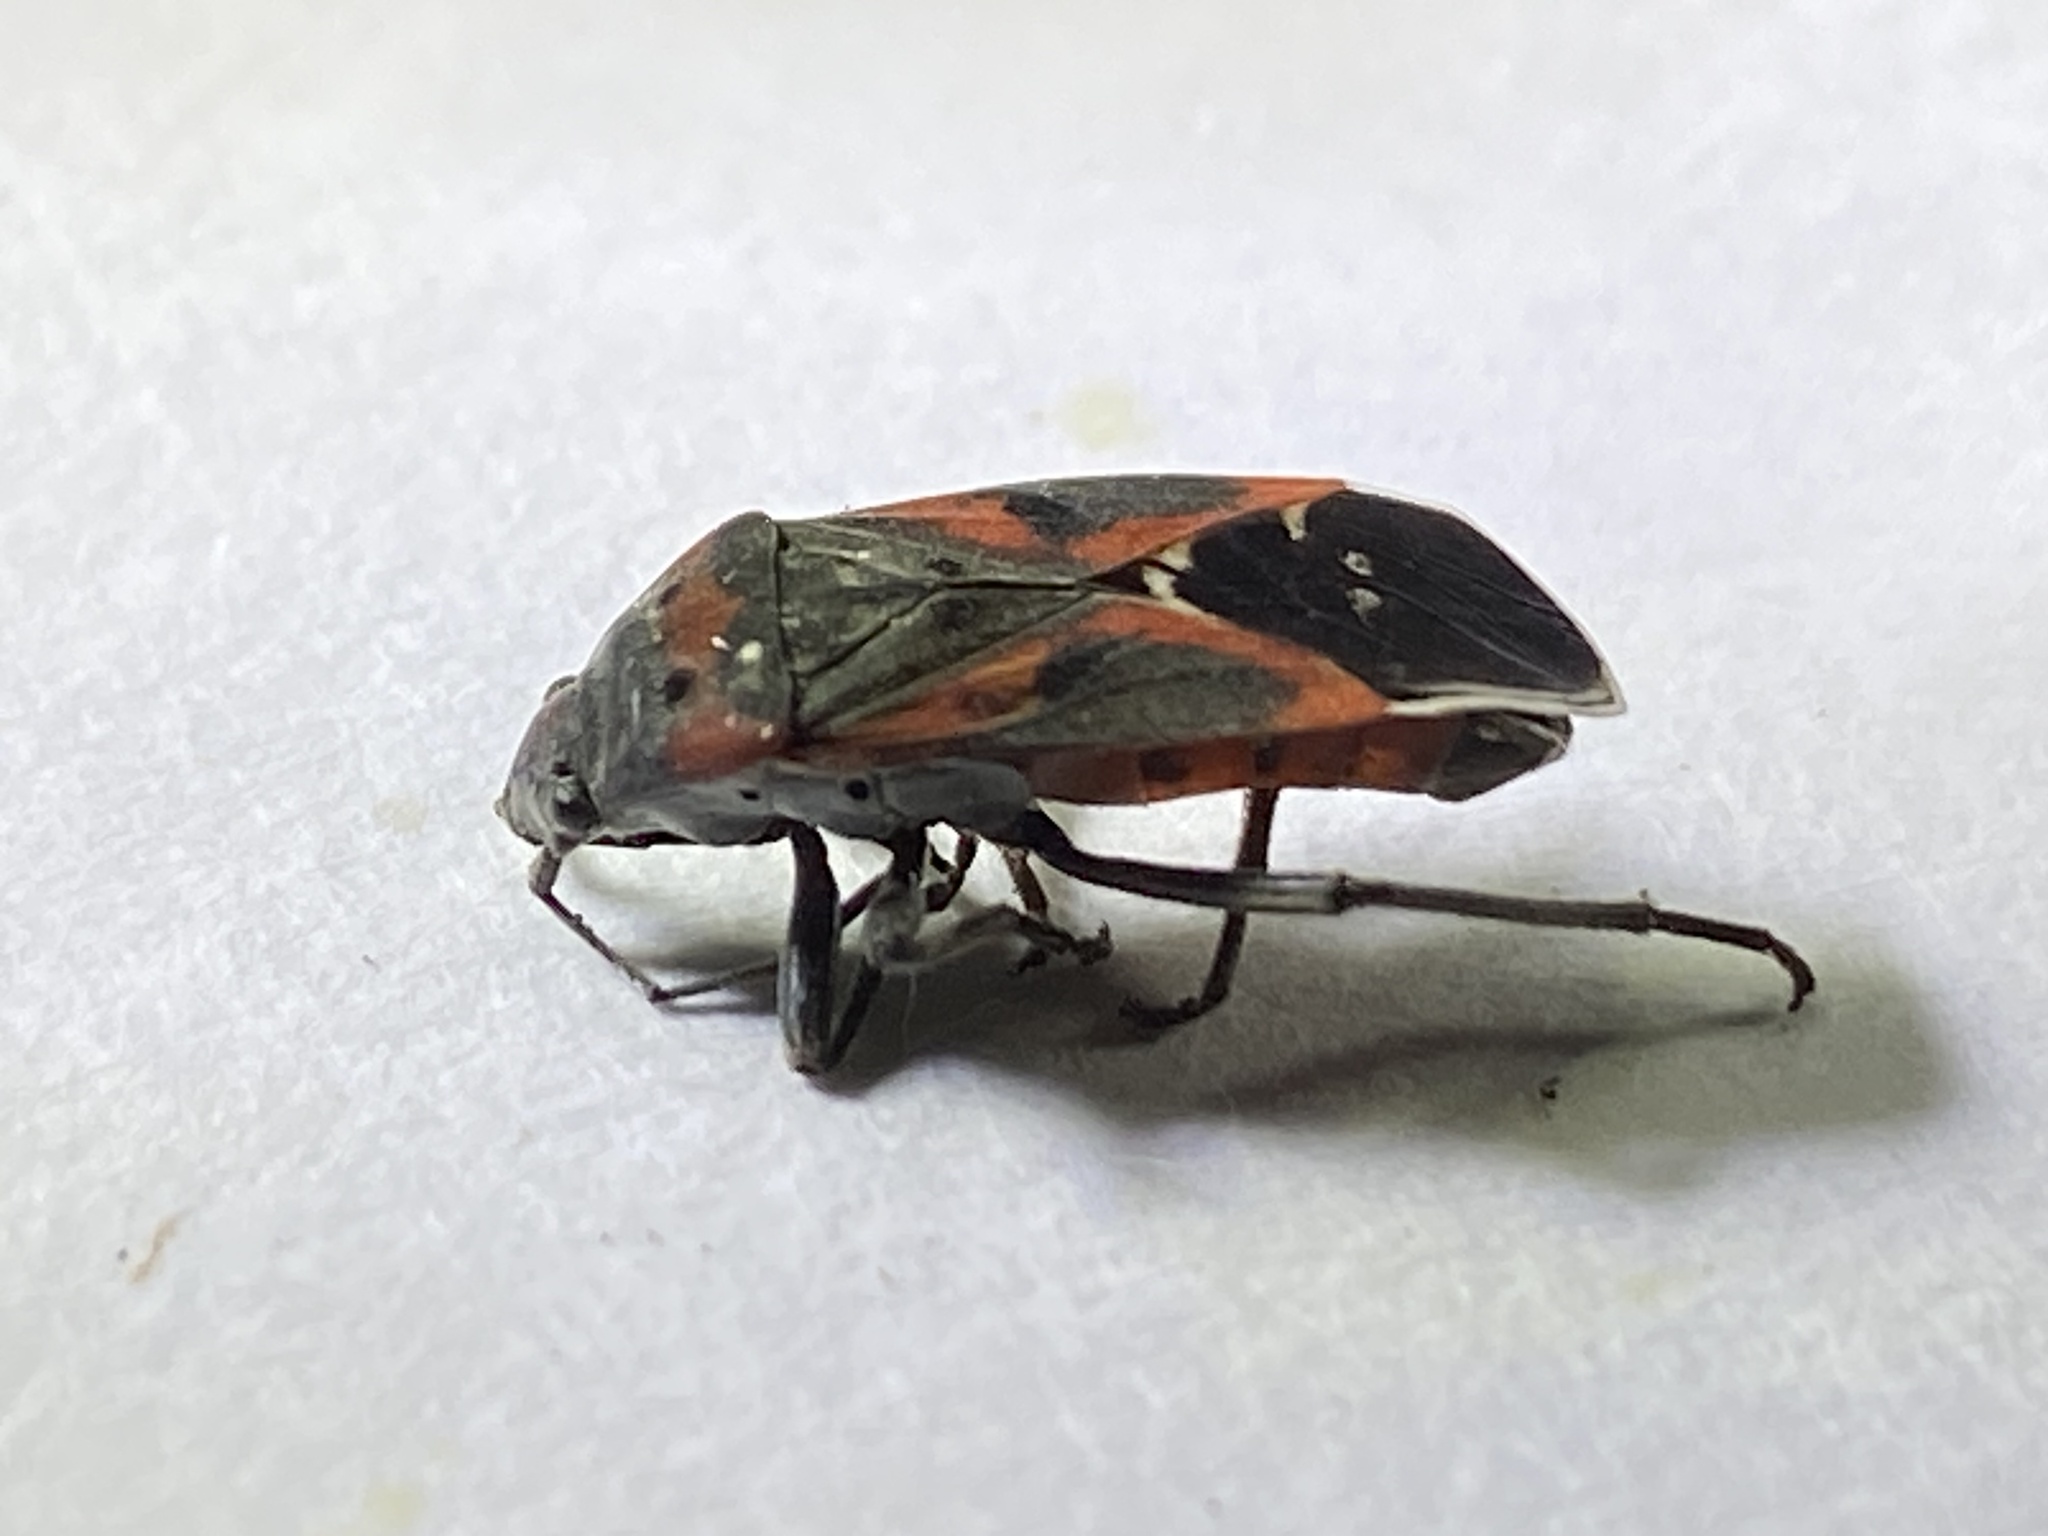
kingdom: Animalia
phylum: Arthropoda
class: Insecta
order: Hemiptera
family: Lygaeidae
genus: Lygaeus
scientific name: Lygaeus kalmii
